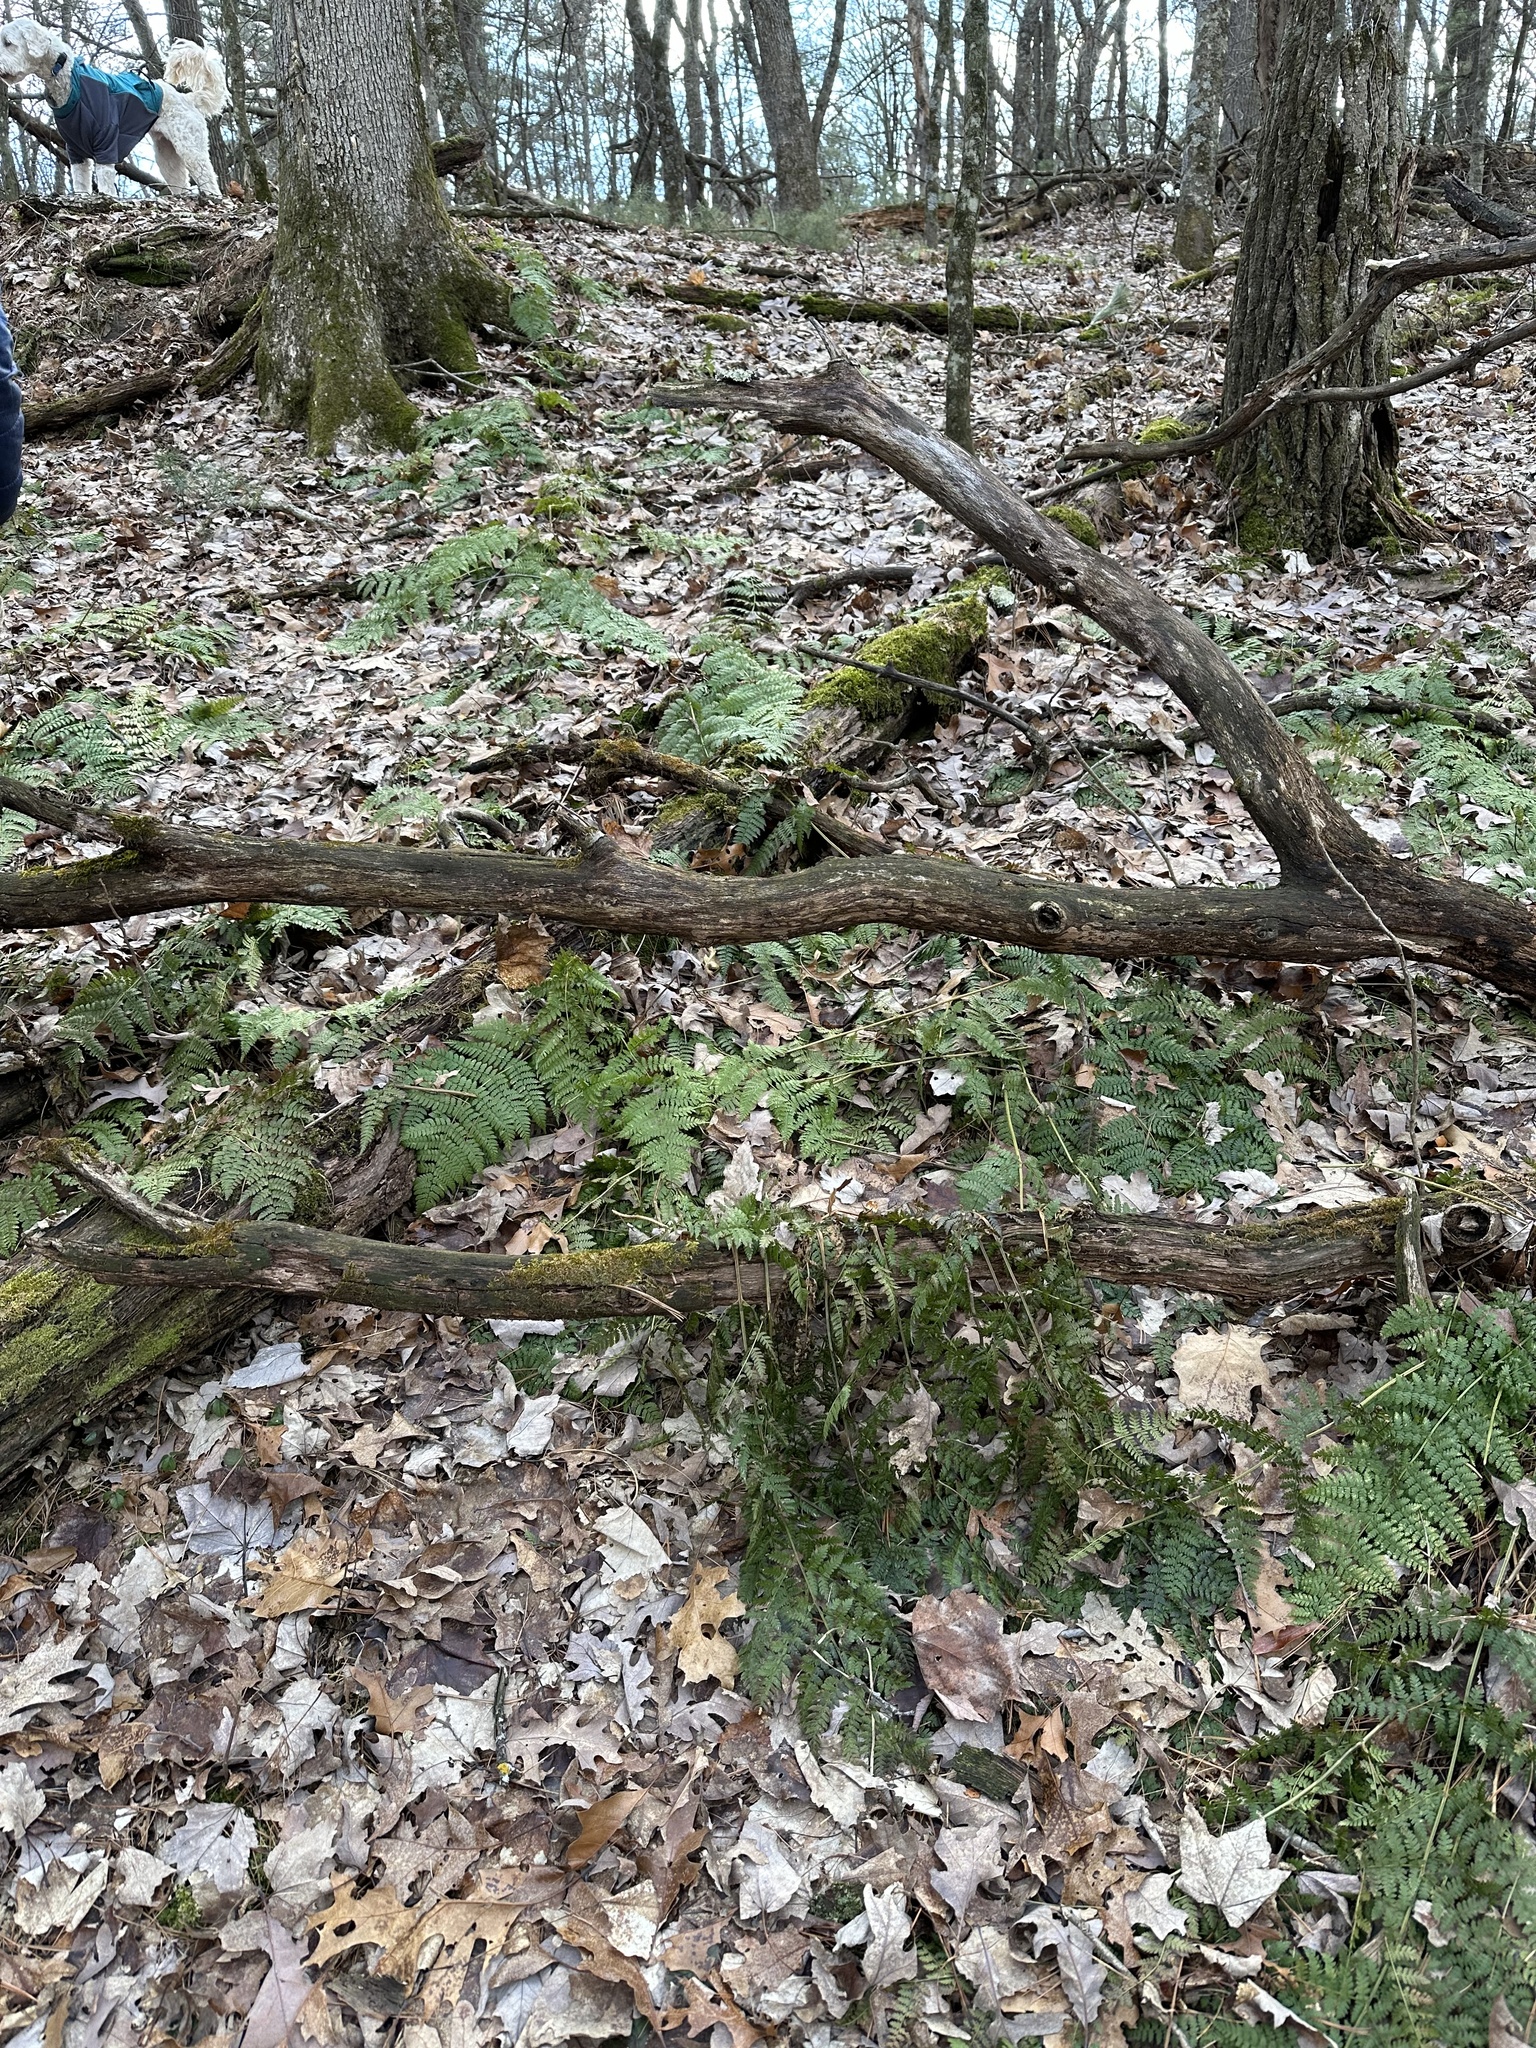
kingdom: Plantae
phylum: Tracheophyta
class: Polypodiopsida
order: Polypodiales
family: Dryopteridaceae
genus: Dryopteris
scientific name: Dryopteris intermedia
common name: Evergreen wood fern
